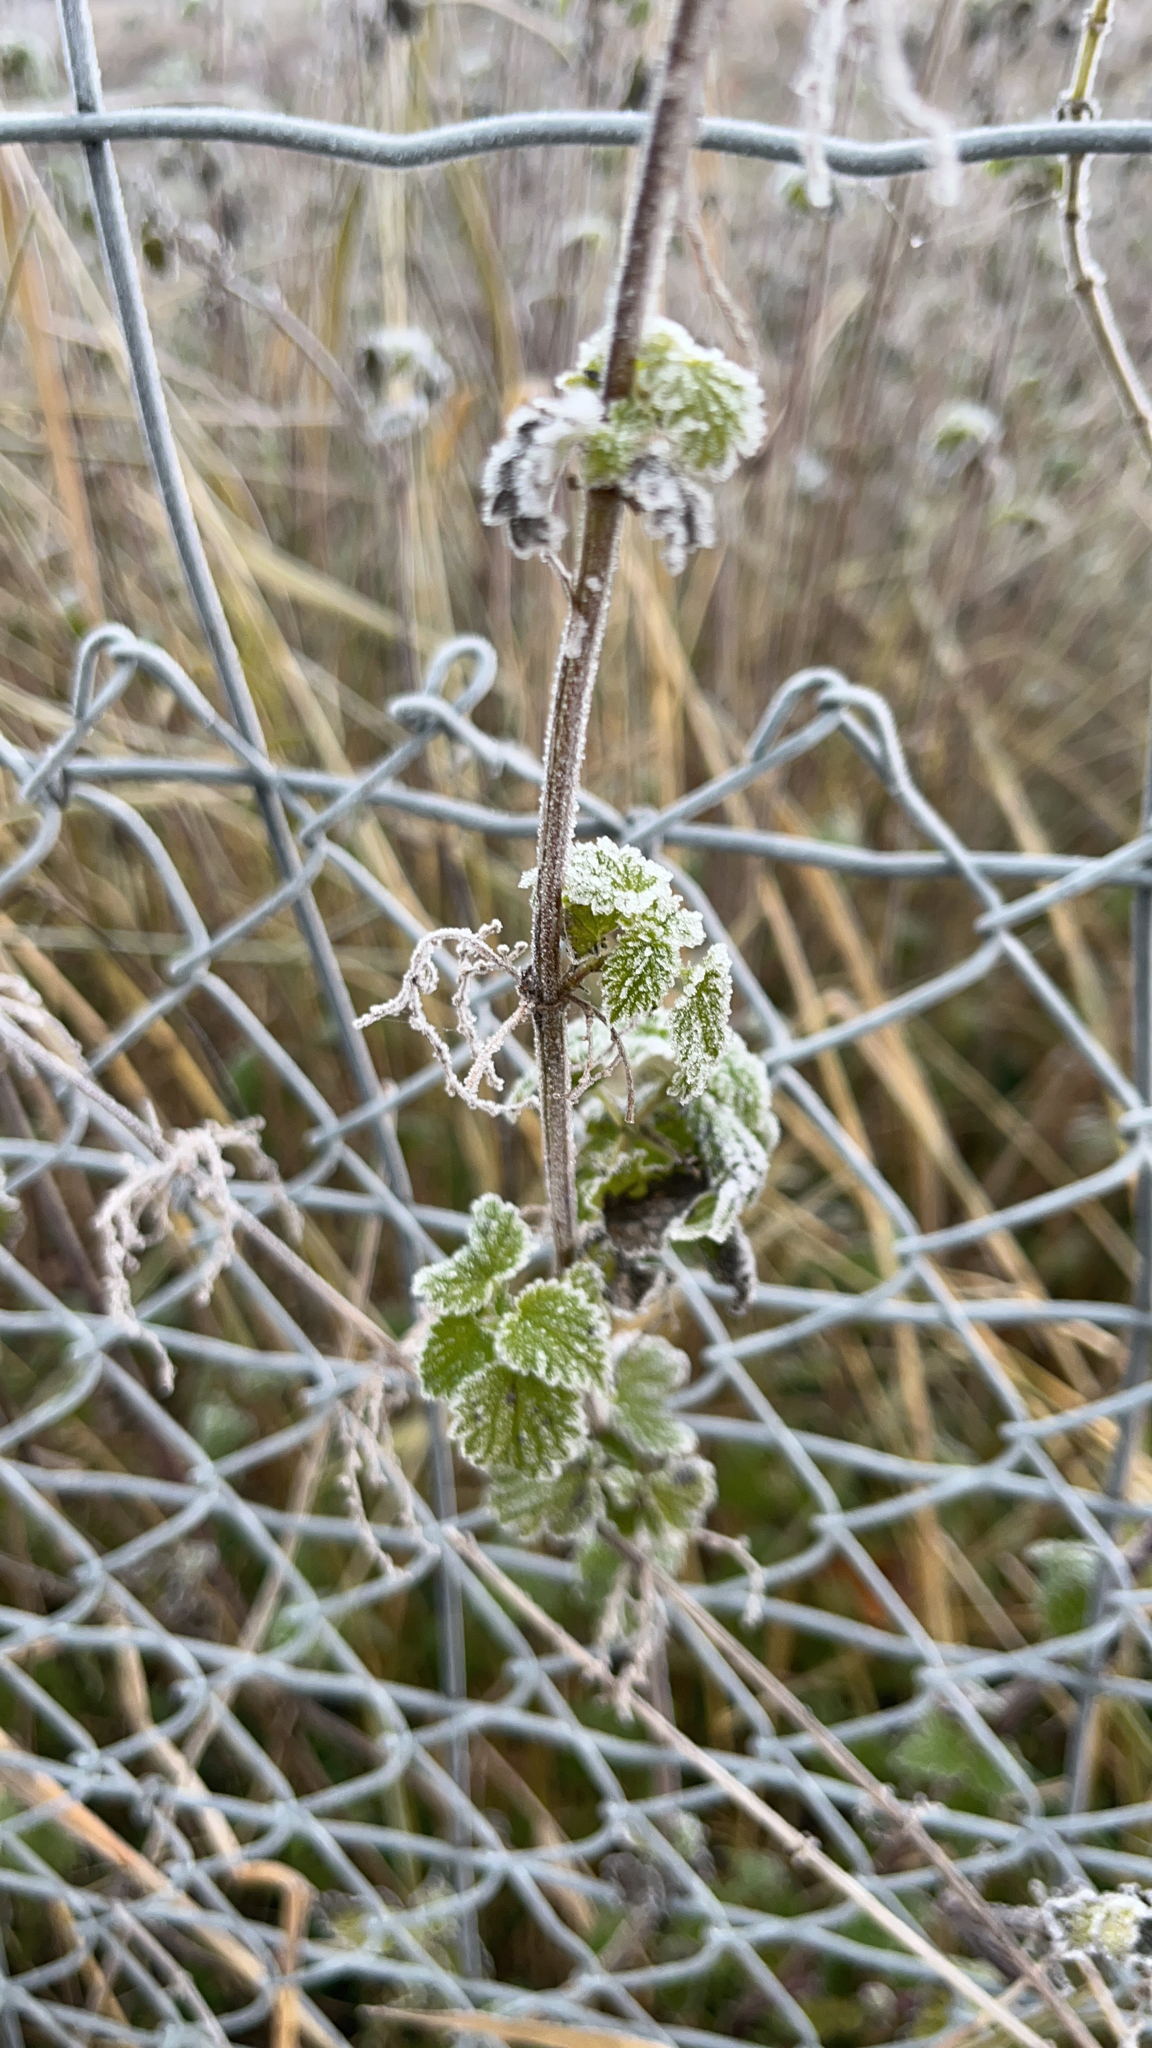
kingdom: Plantae
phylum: Tracheophyta
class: Magnoliopsida
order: Lamiales
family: Lamiaceae
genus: Marrubium
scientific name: Marrubium vulgare
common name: Horehound
